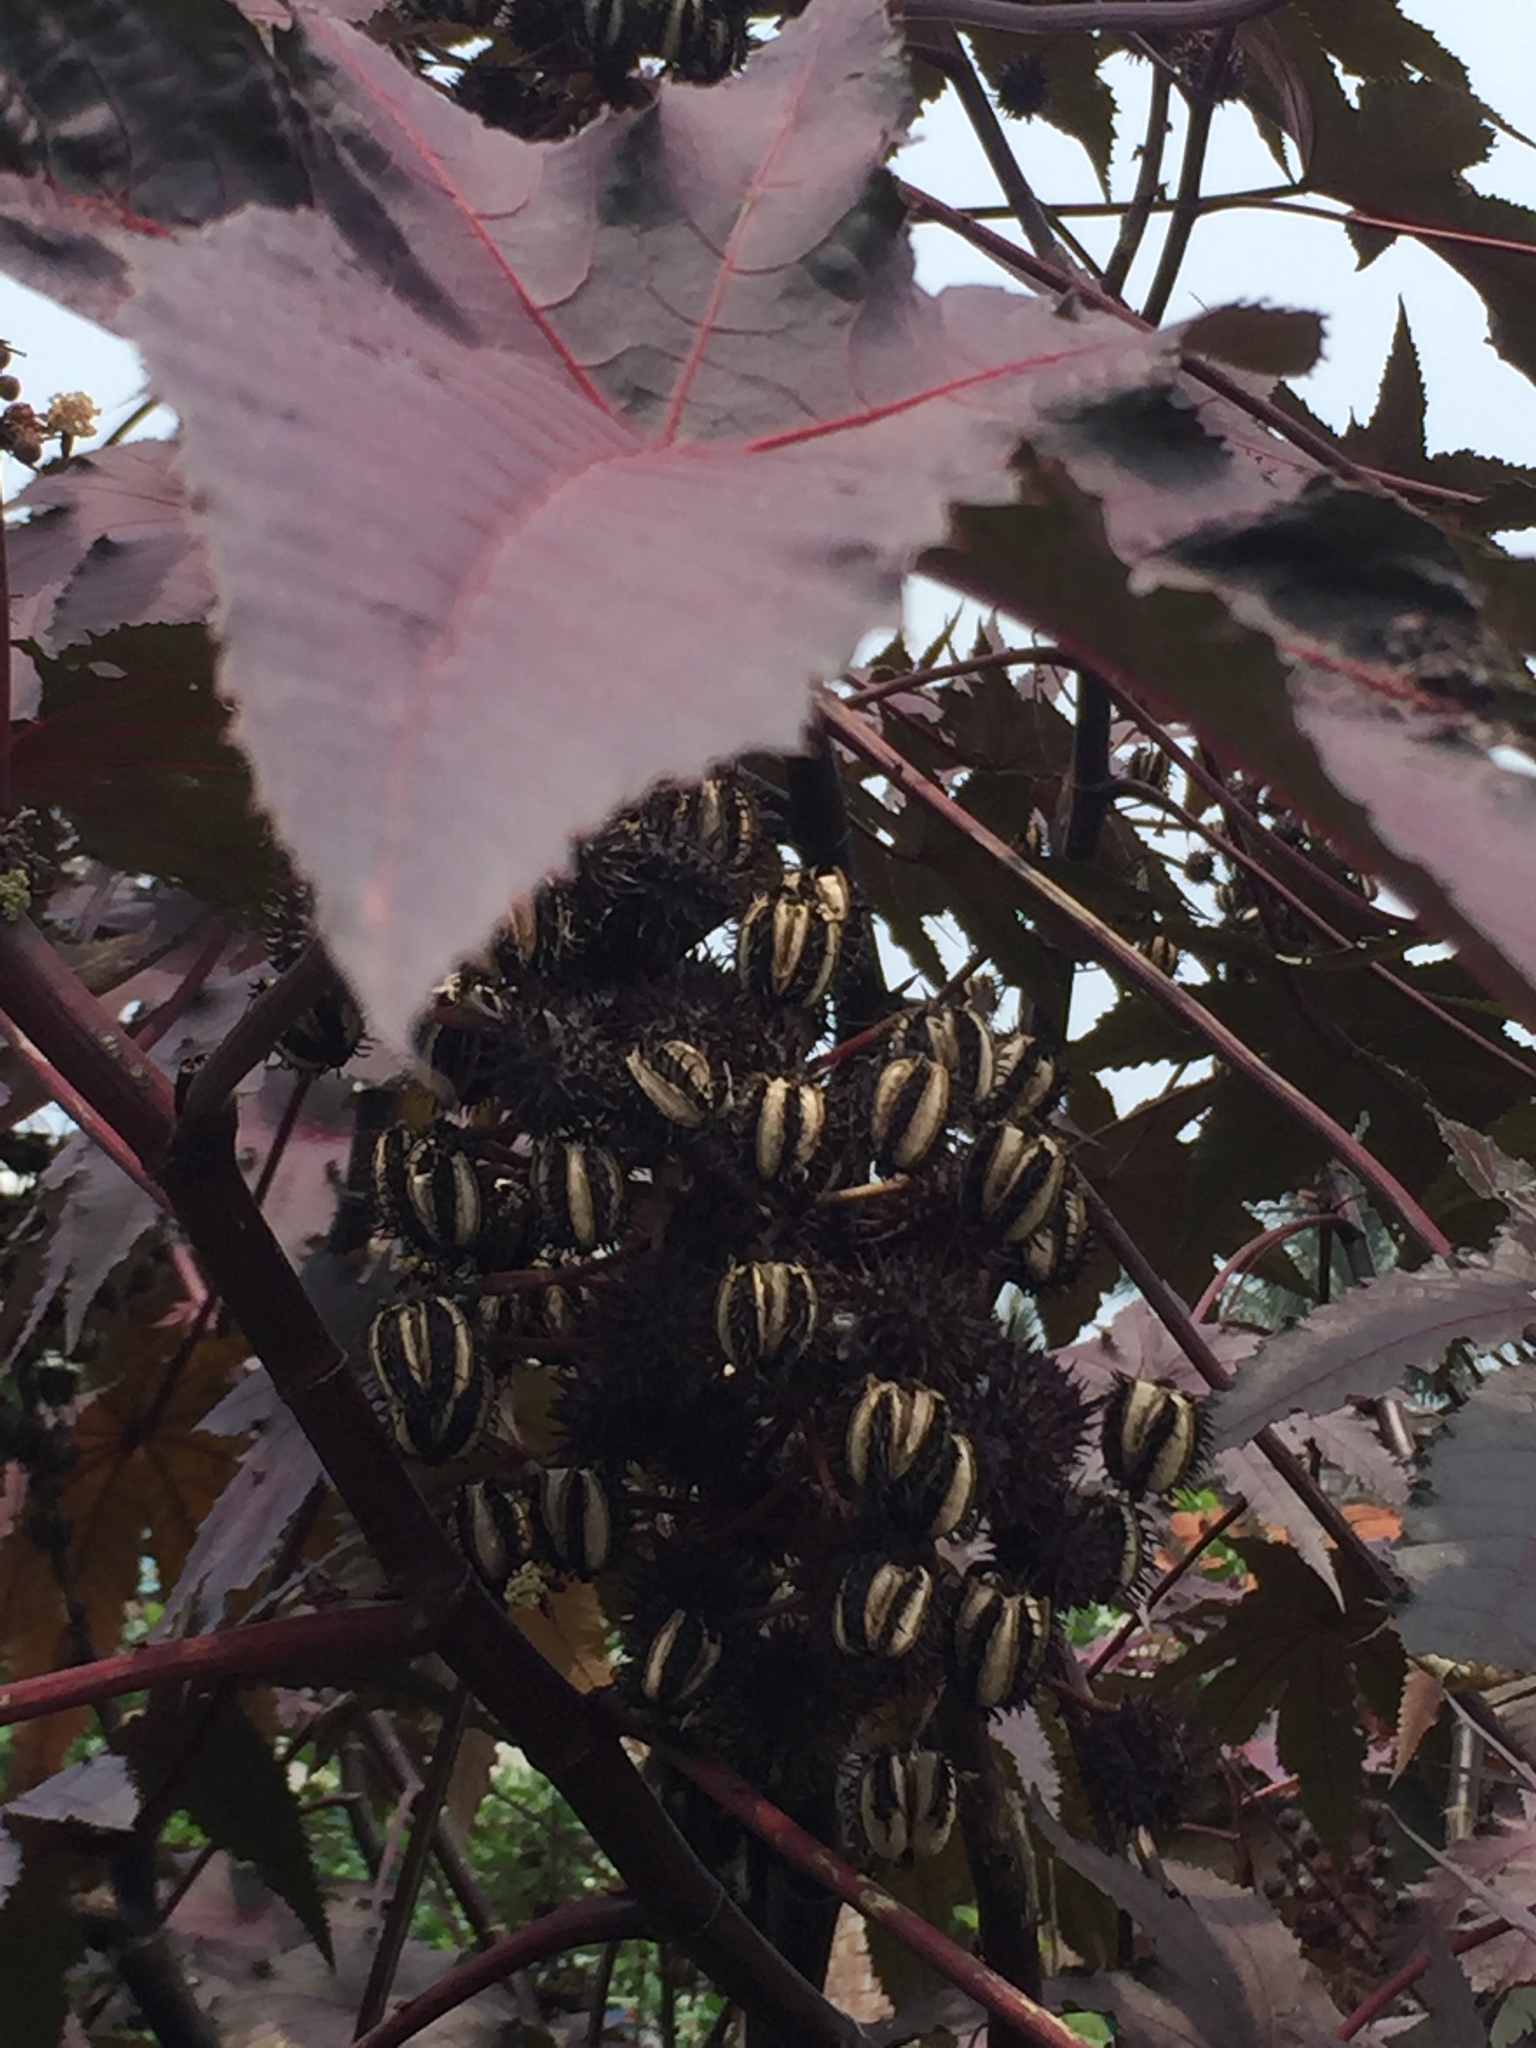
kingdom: Plantae
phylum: Tracheophyta
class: Magnoliopsida
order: Malpighiales
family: Euphorbiaceae
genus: Ricinus
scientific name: Ricinus communis
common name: Castor-oil-plant
